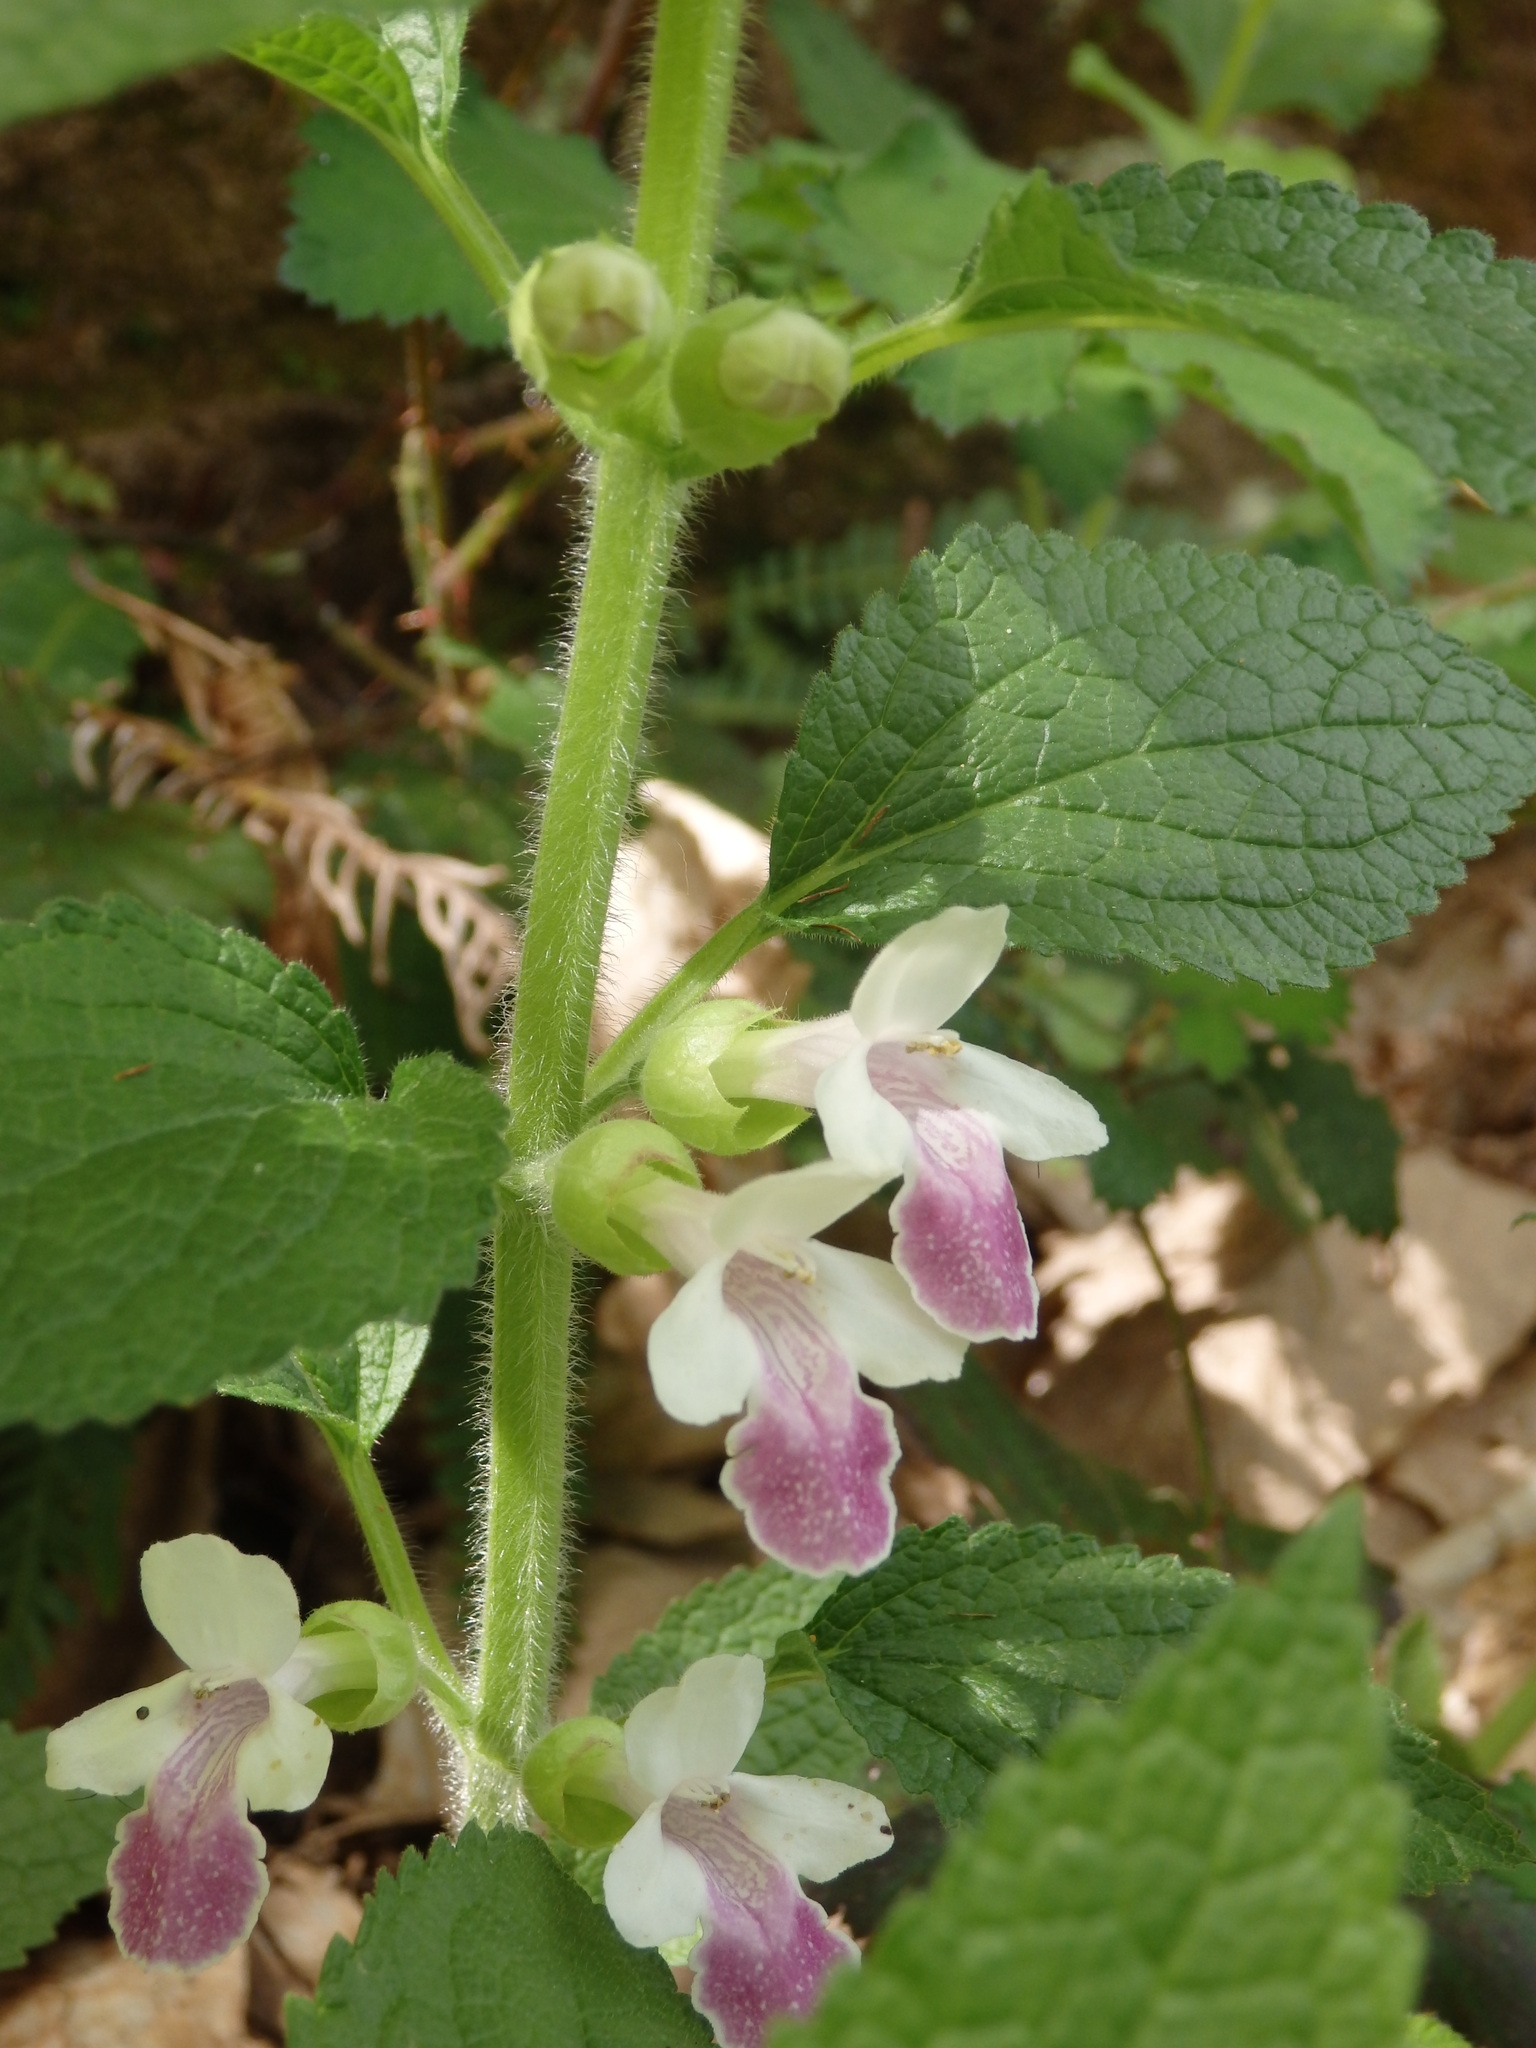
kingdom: Plantae
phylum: Tracheophyta
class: Magnoliopsida
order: Lamiales
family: Lamiaceae
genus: Melittis
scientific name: Melittis melissophyllum
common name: Bastard balm
